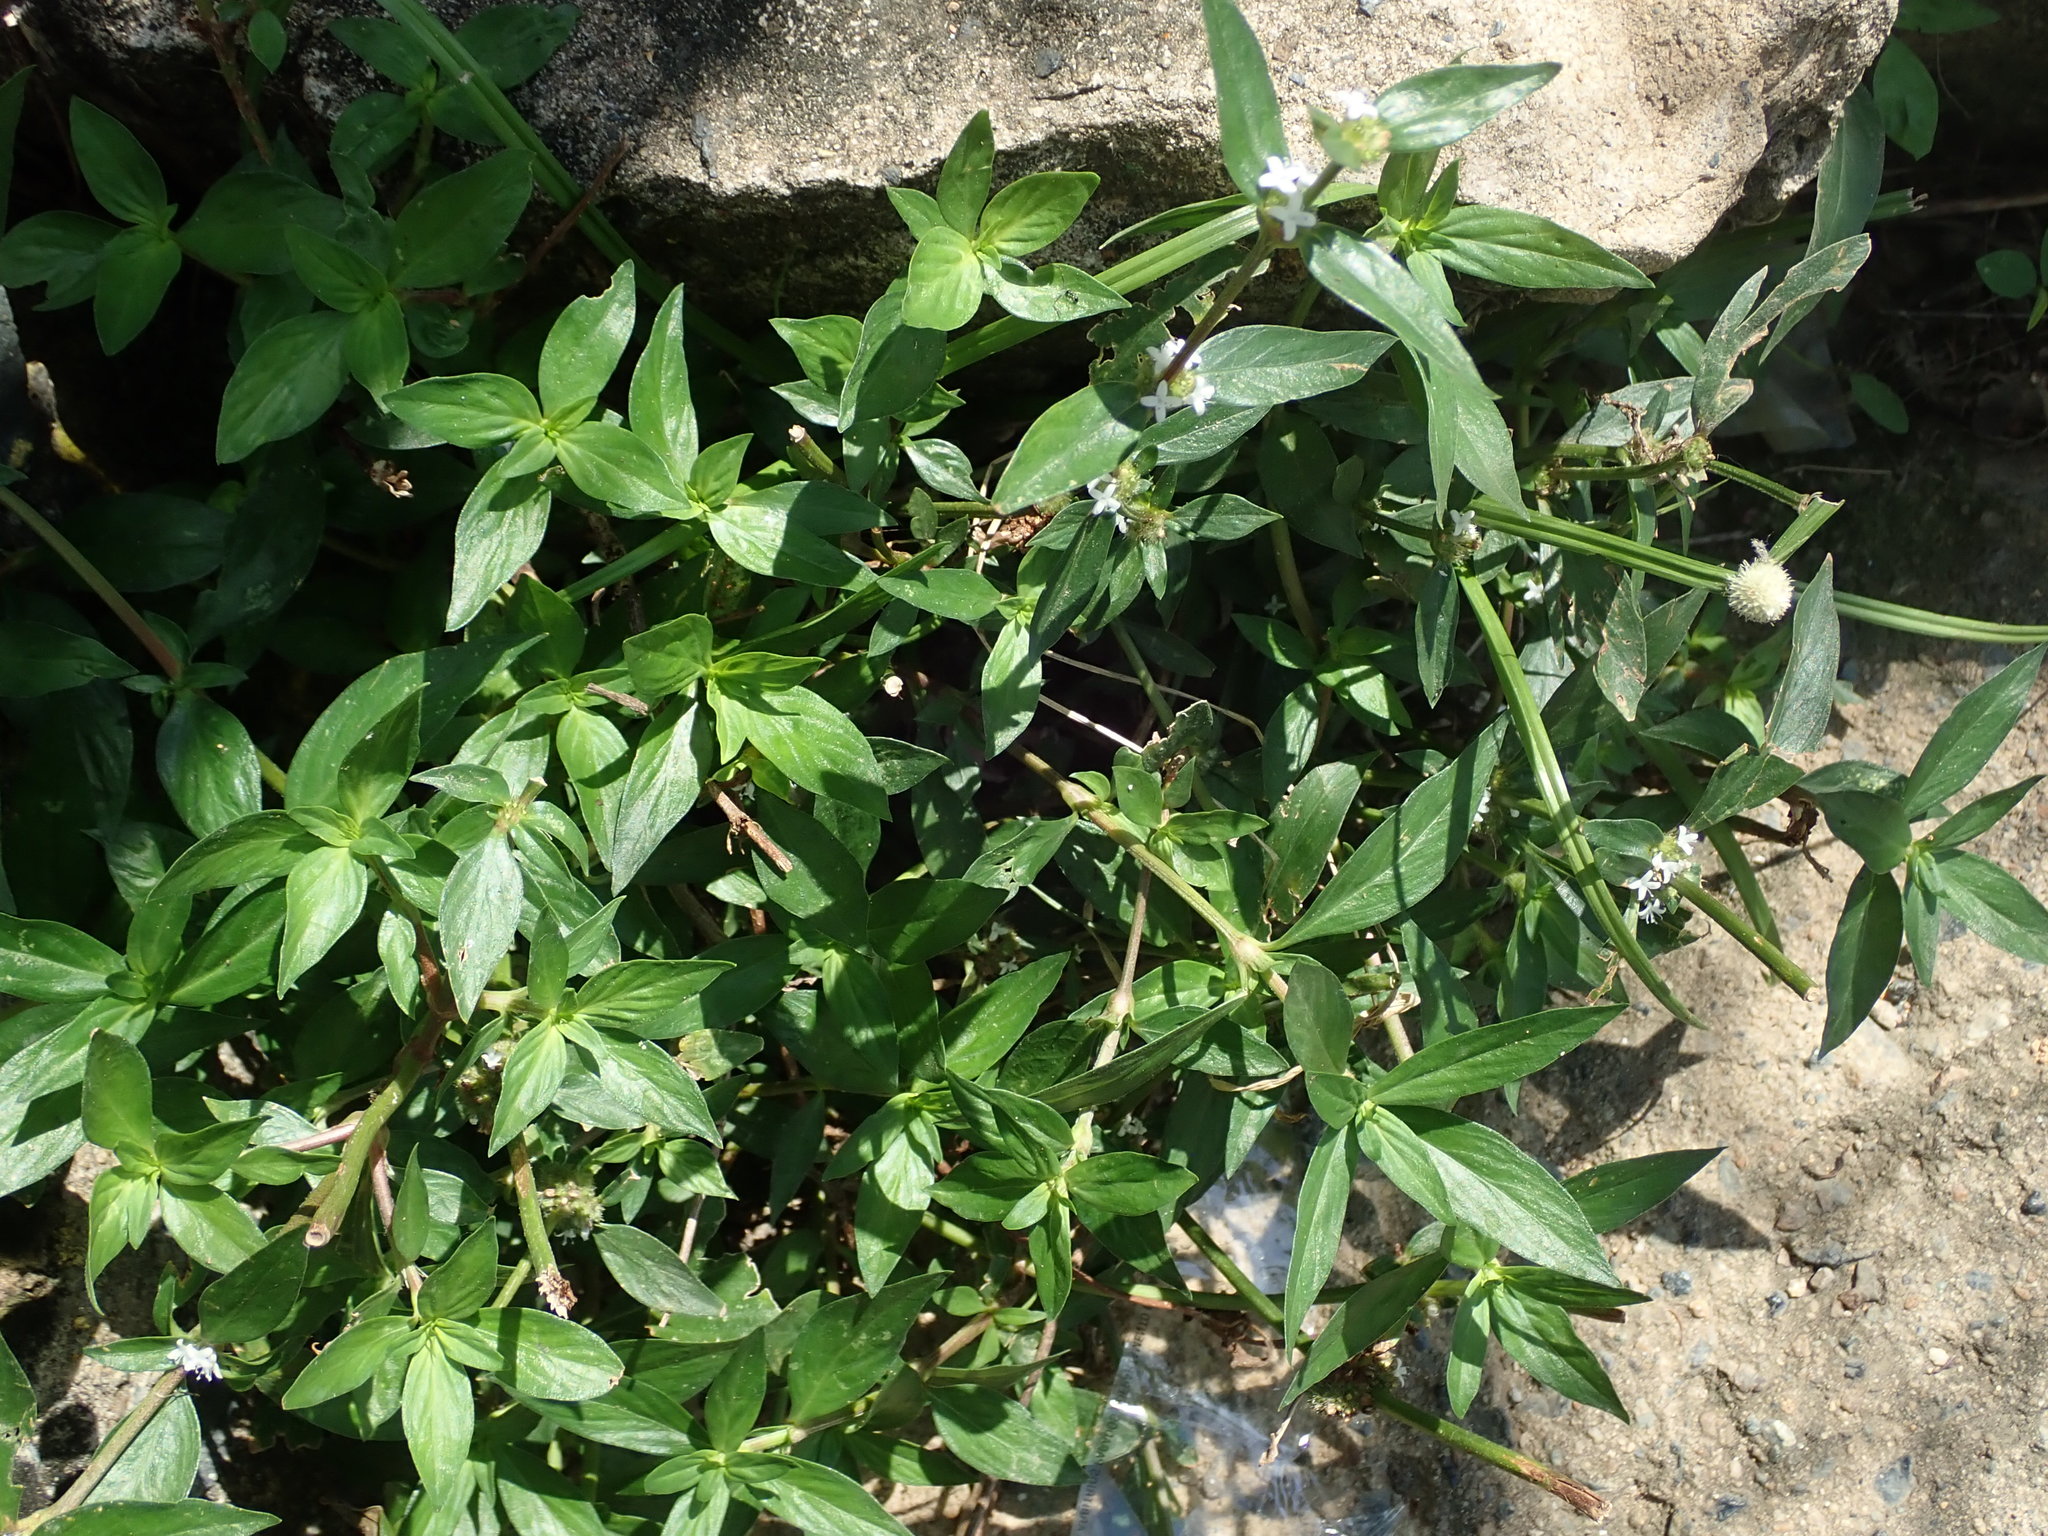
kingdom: Plantae
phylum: Tracheophyta
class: Magnoliopsida
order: Gentianales
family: Rubiaceae
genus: Spermacoce
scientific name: Spermacoce remota
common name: Woodland false buttonweed
